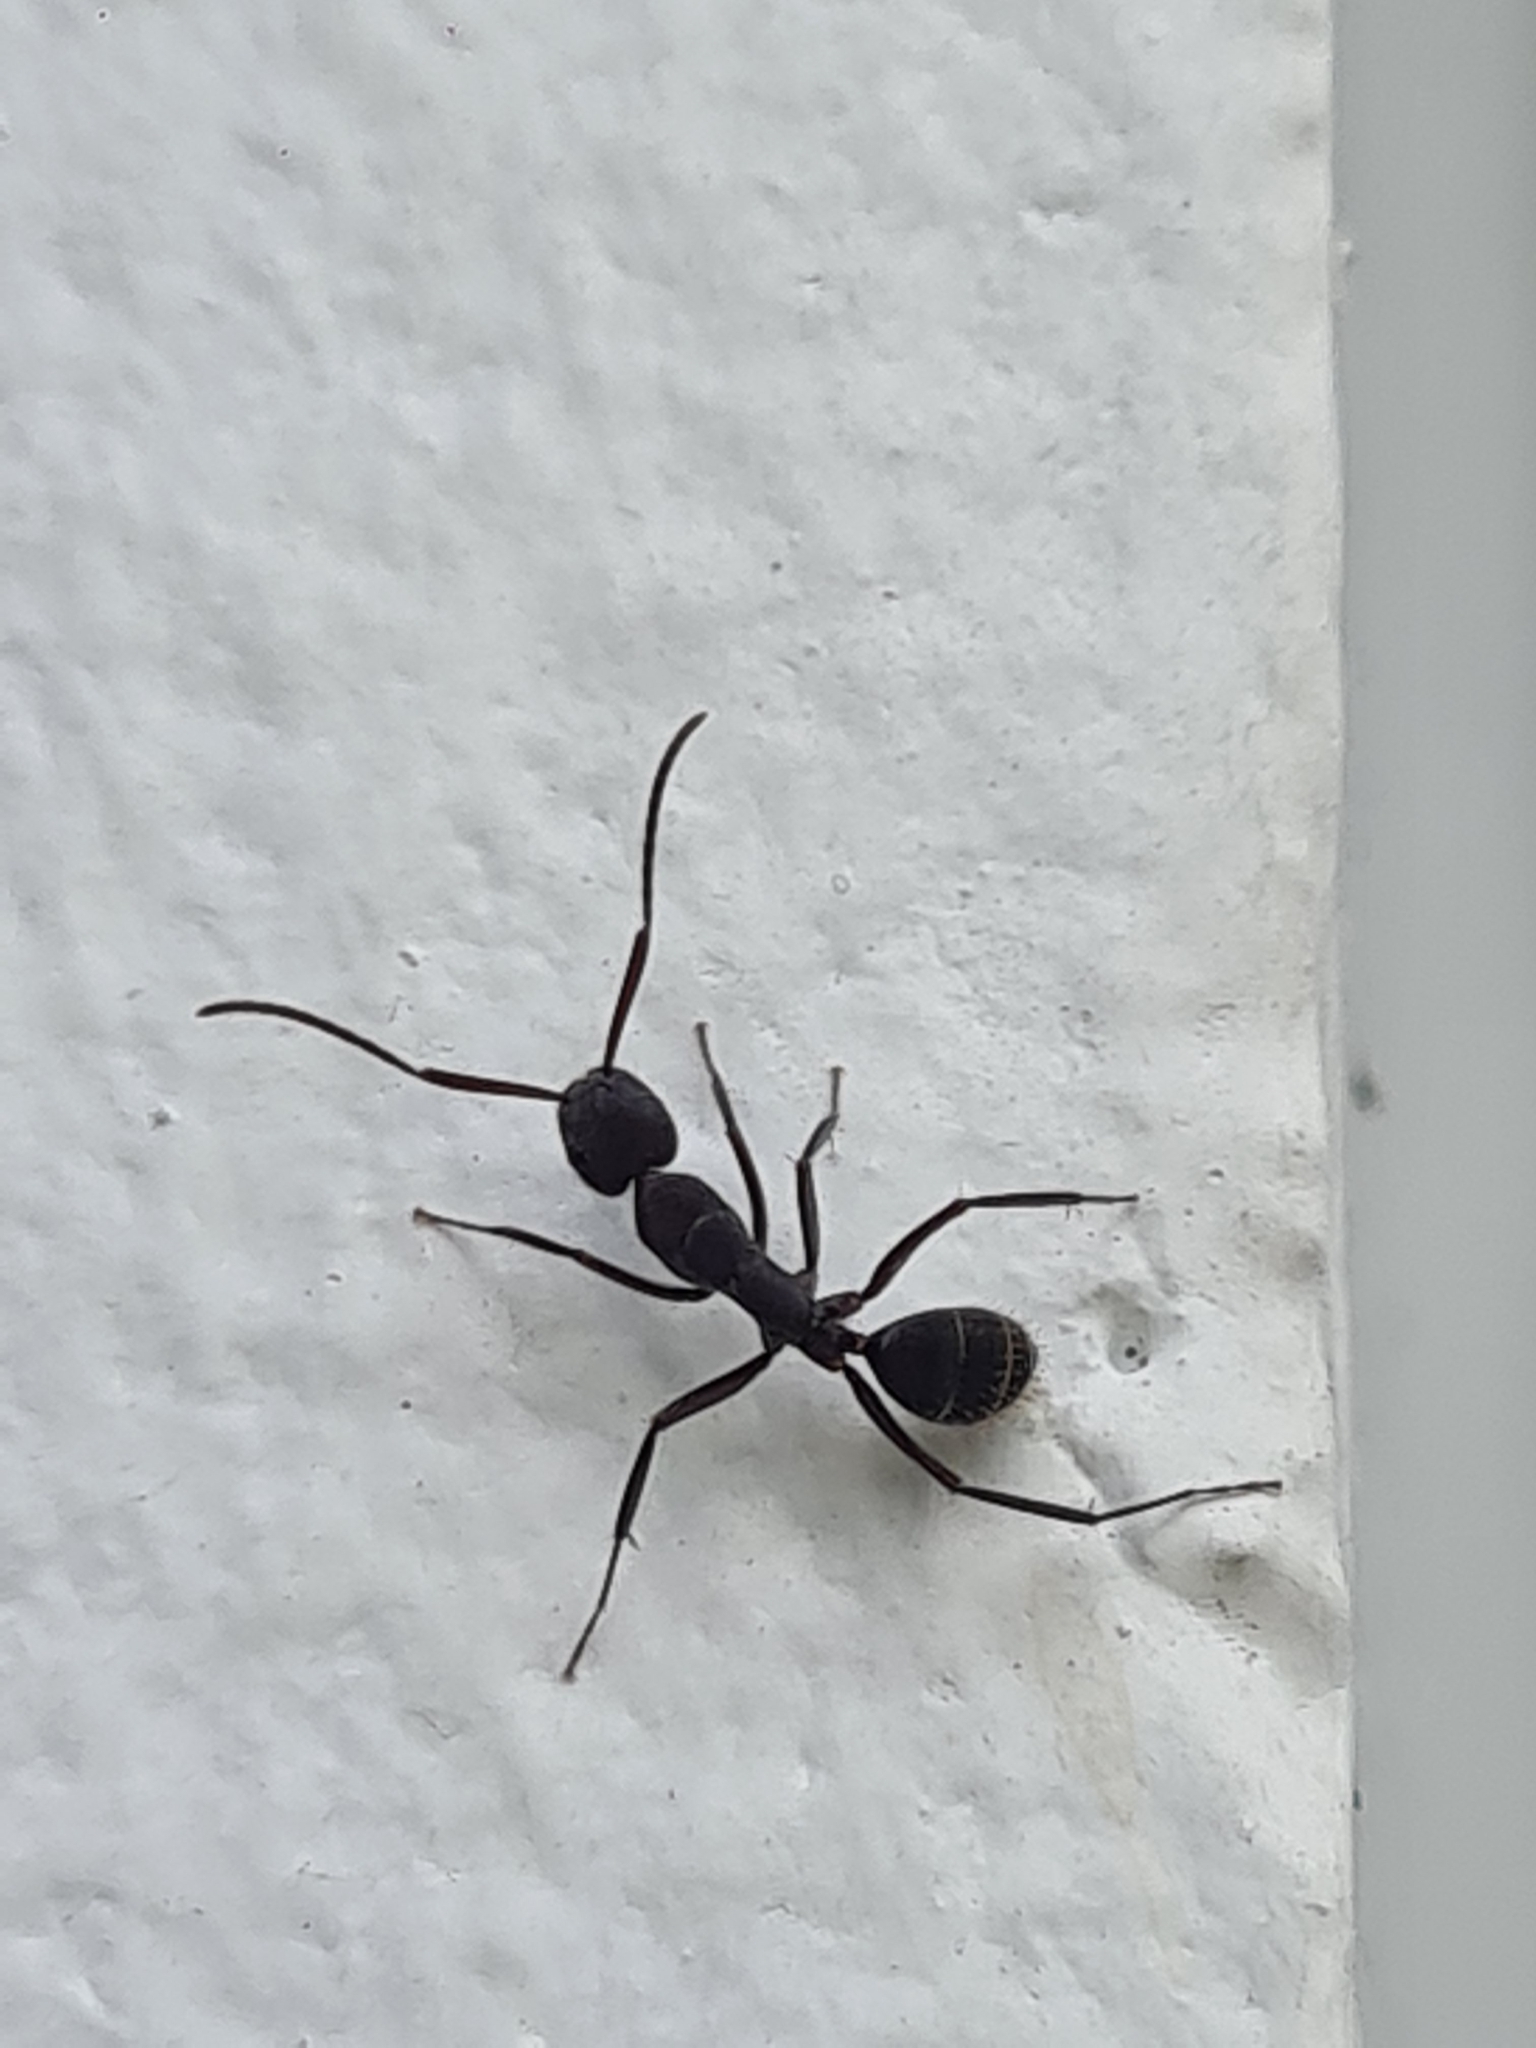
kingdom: Animalia
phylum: Arthropoda
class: Insecta
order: Hymenoptera
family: Formicidae
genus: Camponotus
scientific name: Camponotus leydigi
